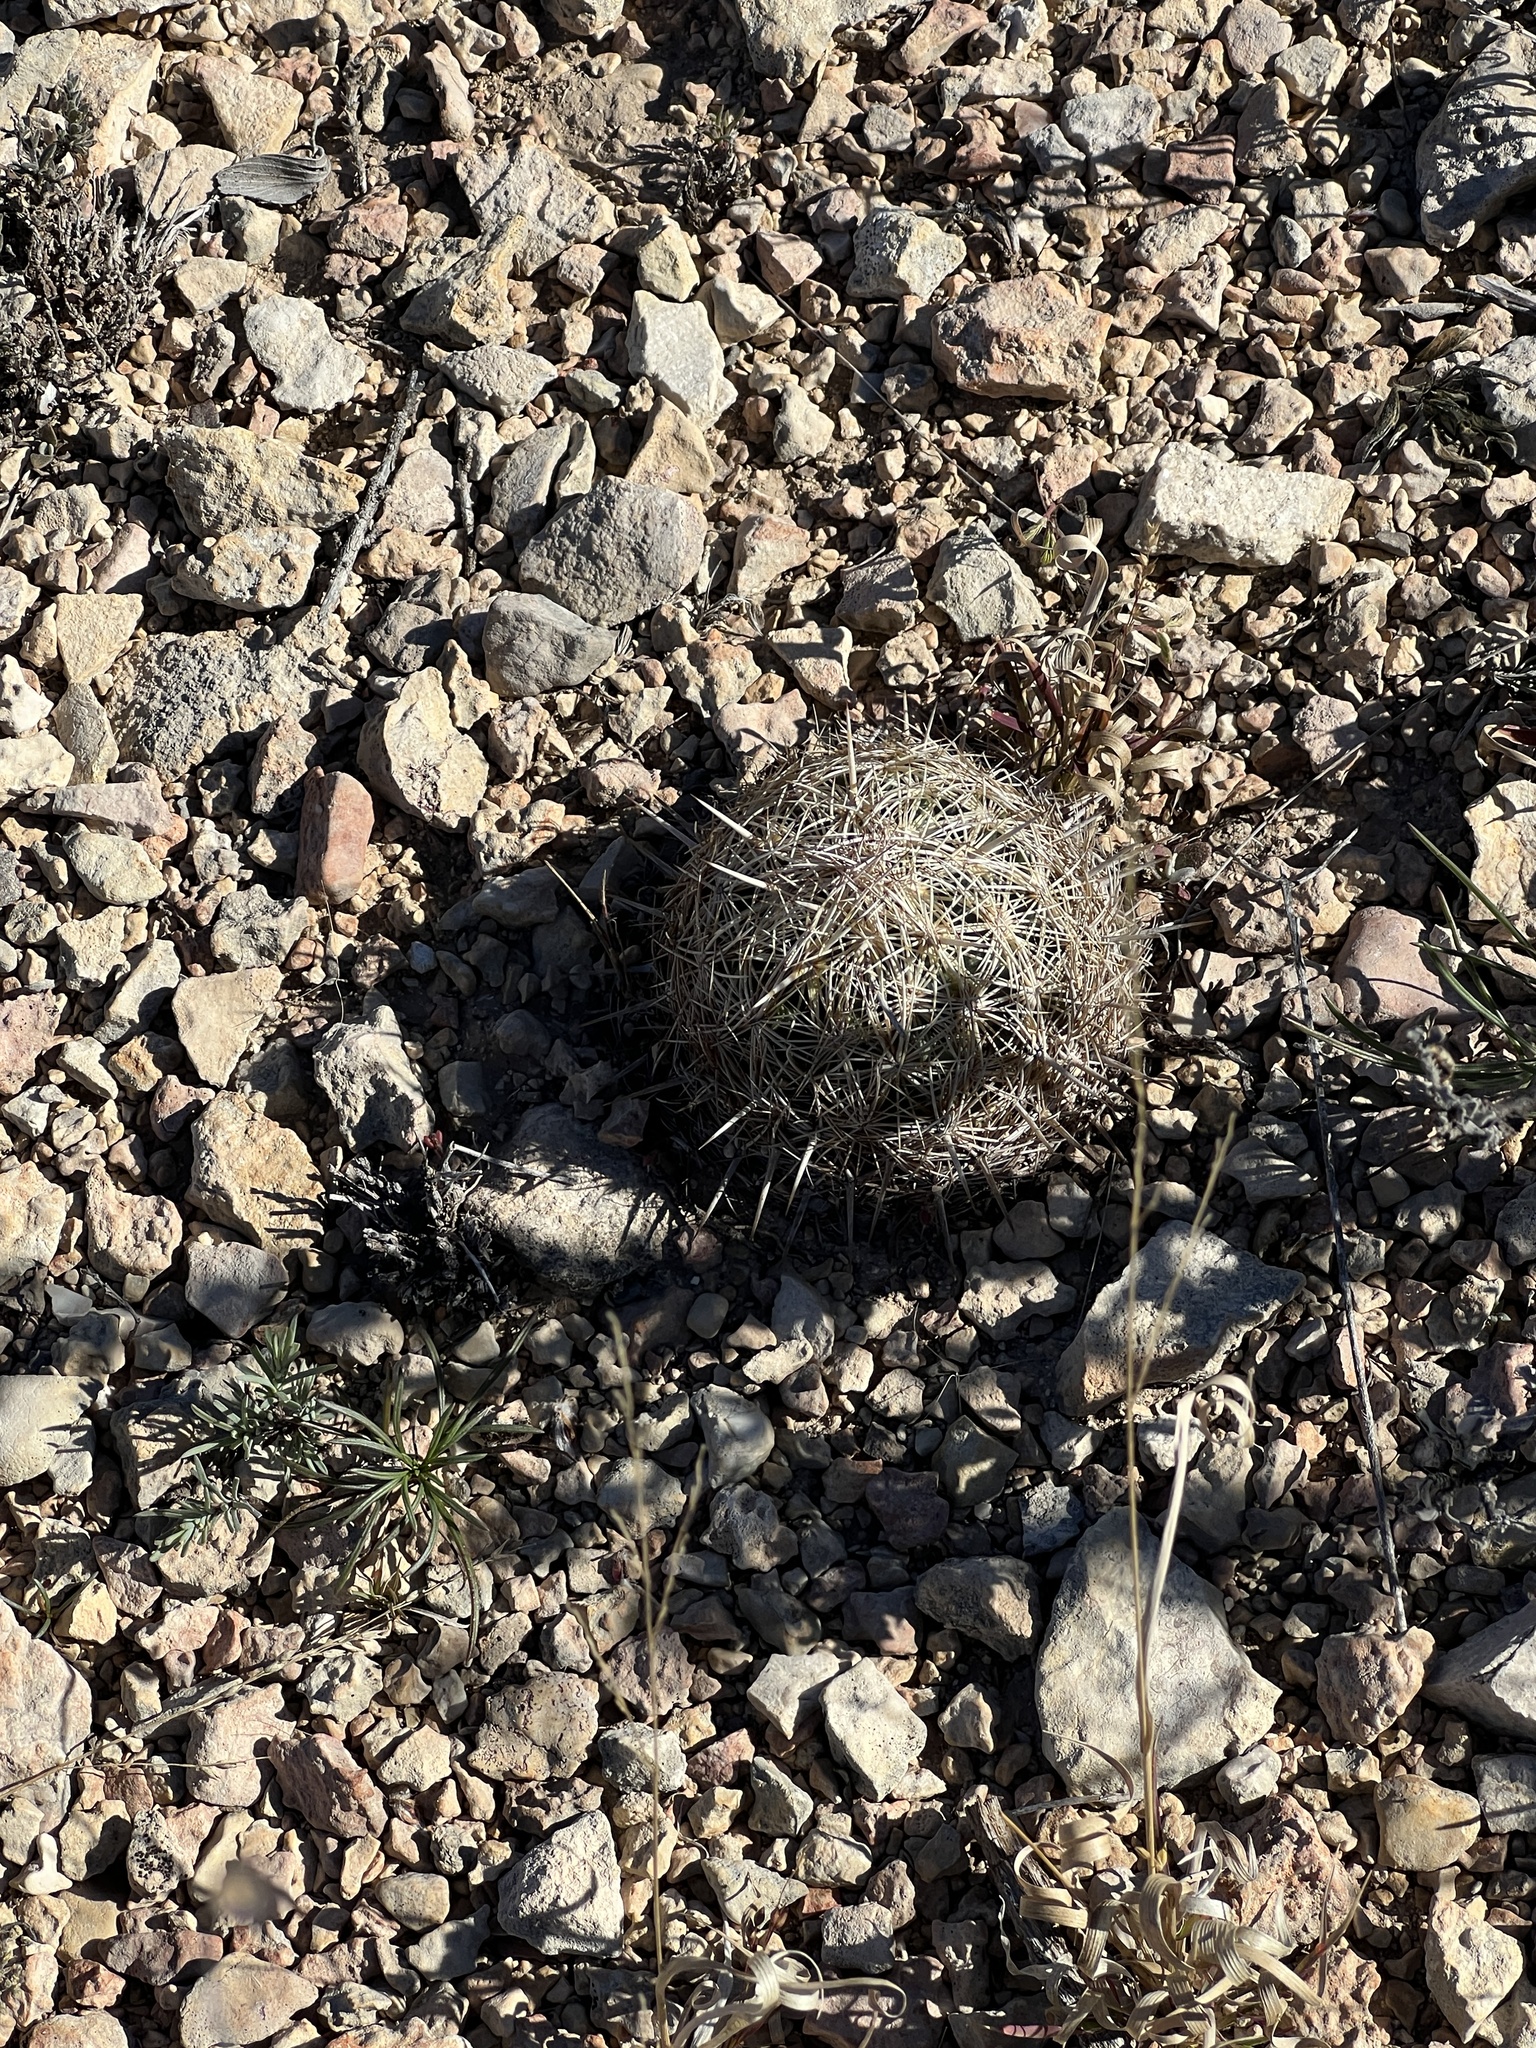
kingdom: Plantae
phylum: Tracheophyta
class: Magnoliopsida
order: Caryophyllales
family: Cactaceae
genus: Coryphantha
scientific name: Coryphantha echinus
